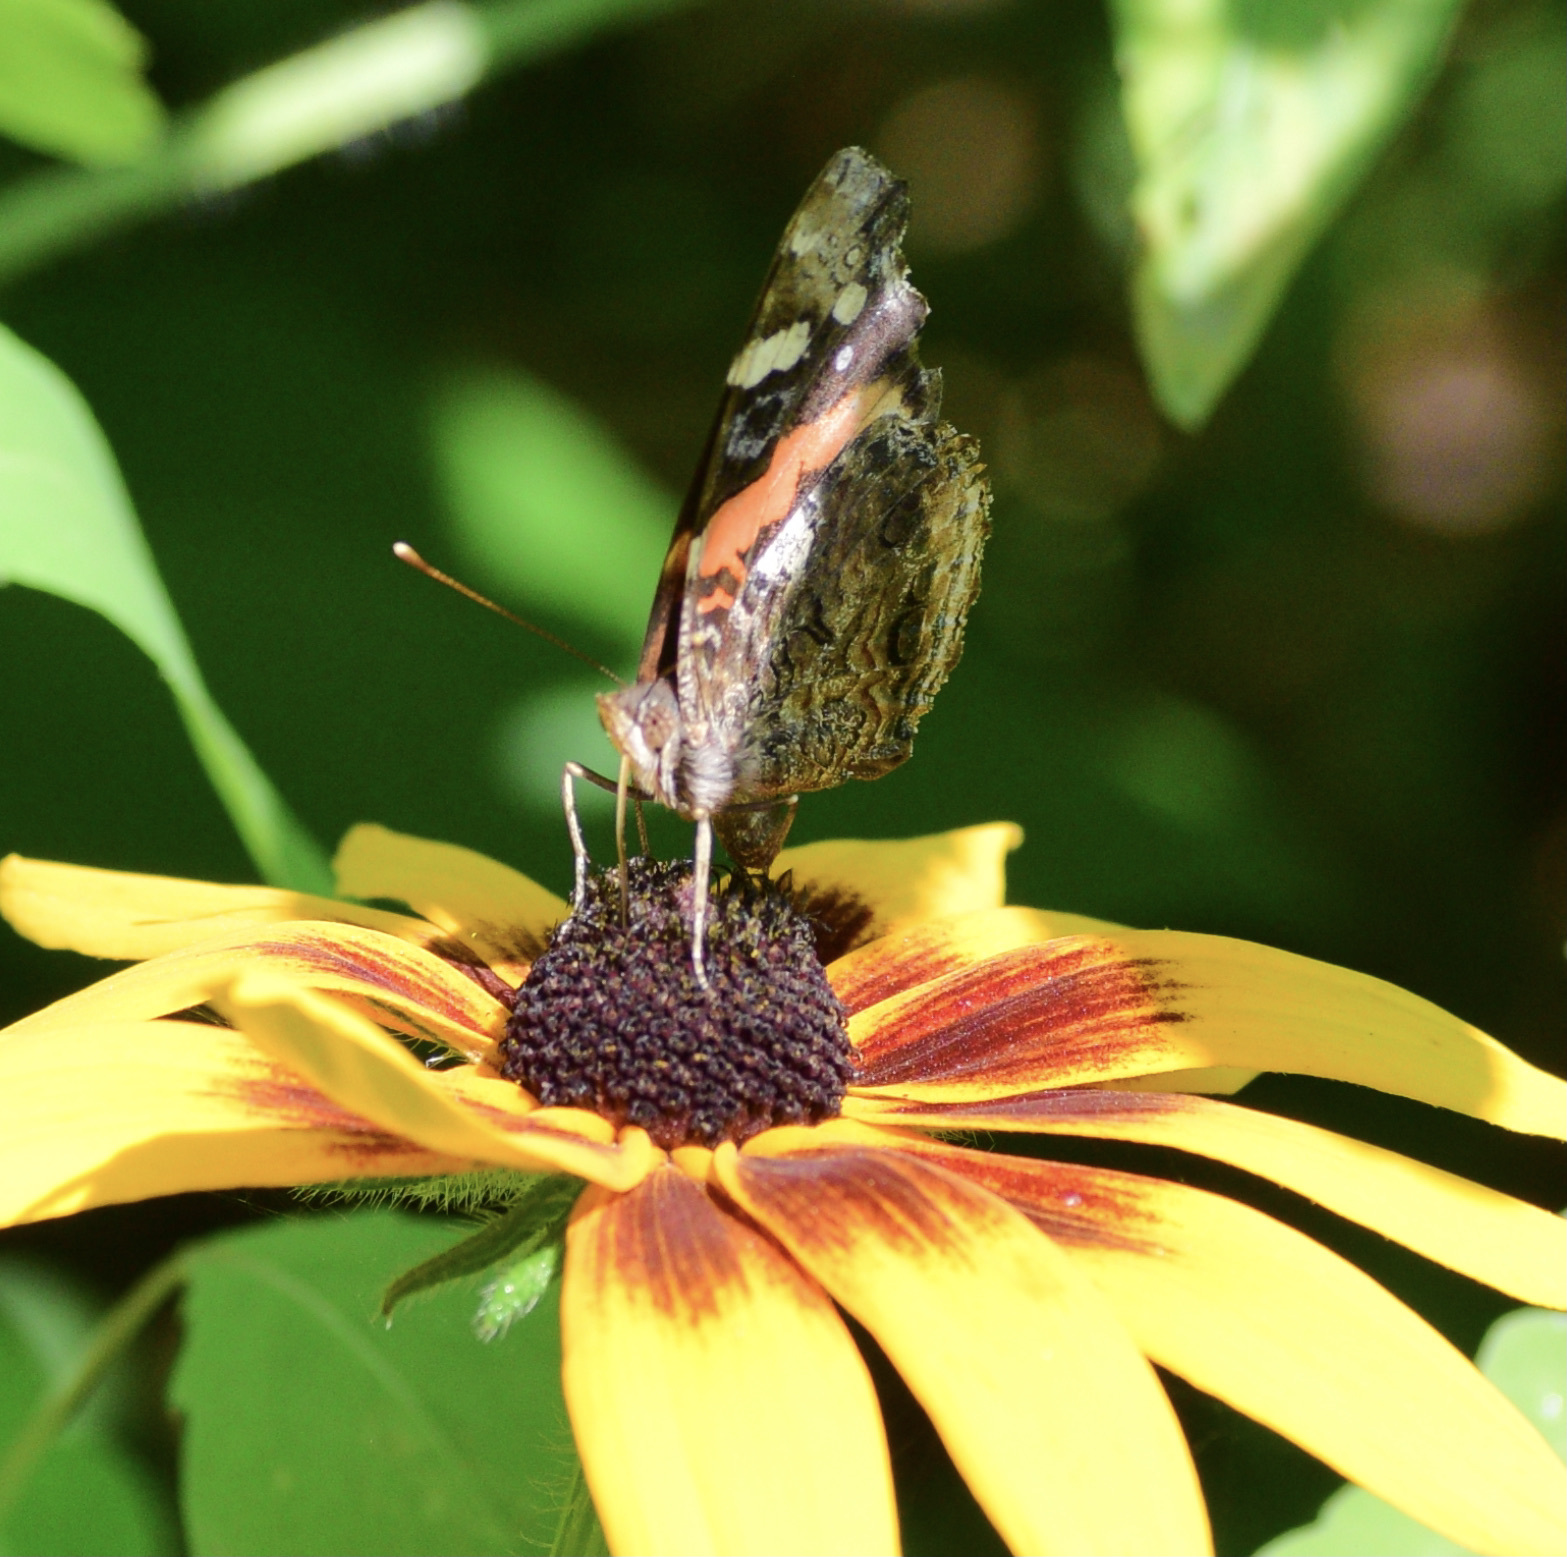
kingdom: Animalia
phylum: Arthropoda
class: Insecta
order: Lepidoptera
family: Nymphalidae
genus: Vanessa
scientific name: Vanessa atalanta
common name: Red admiral
